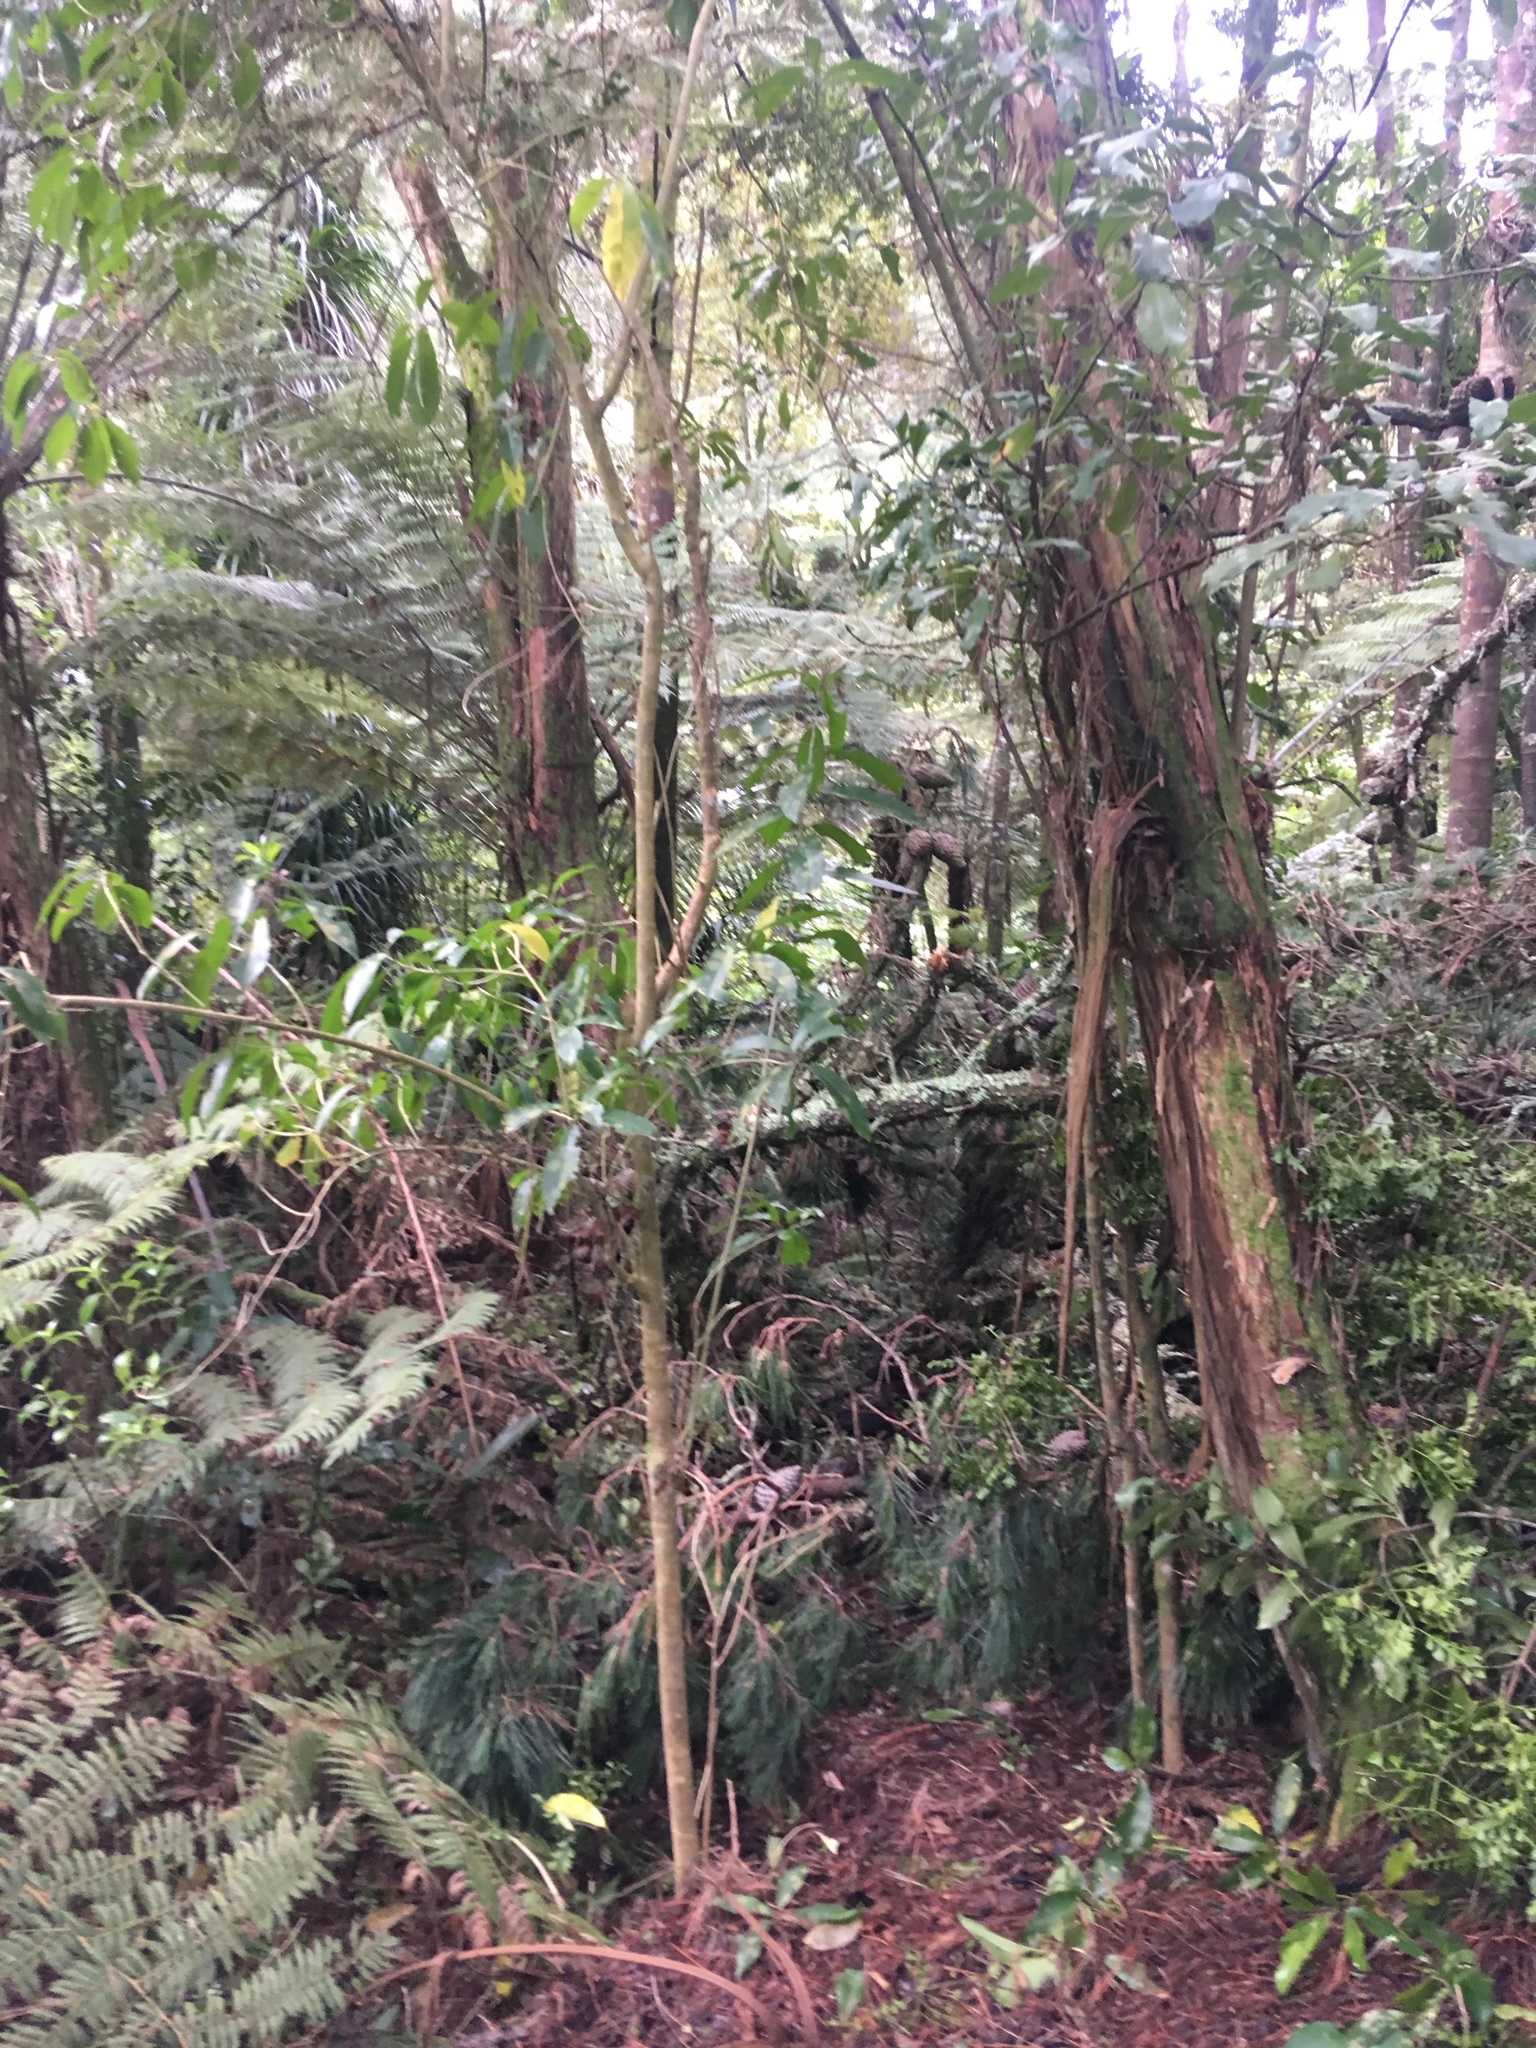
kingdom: Plantae
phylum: Tracheophyta
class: Pinopsida
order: Pinales
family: Phyllocladaceae
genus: Phyllocladus
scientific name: Phyllocladus trichomanoides
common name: Celery pine
